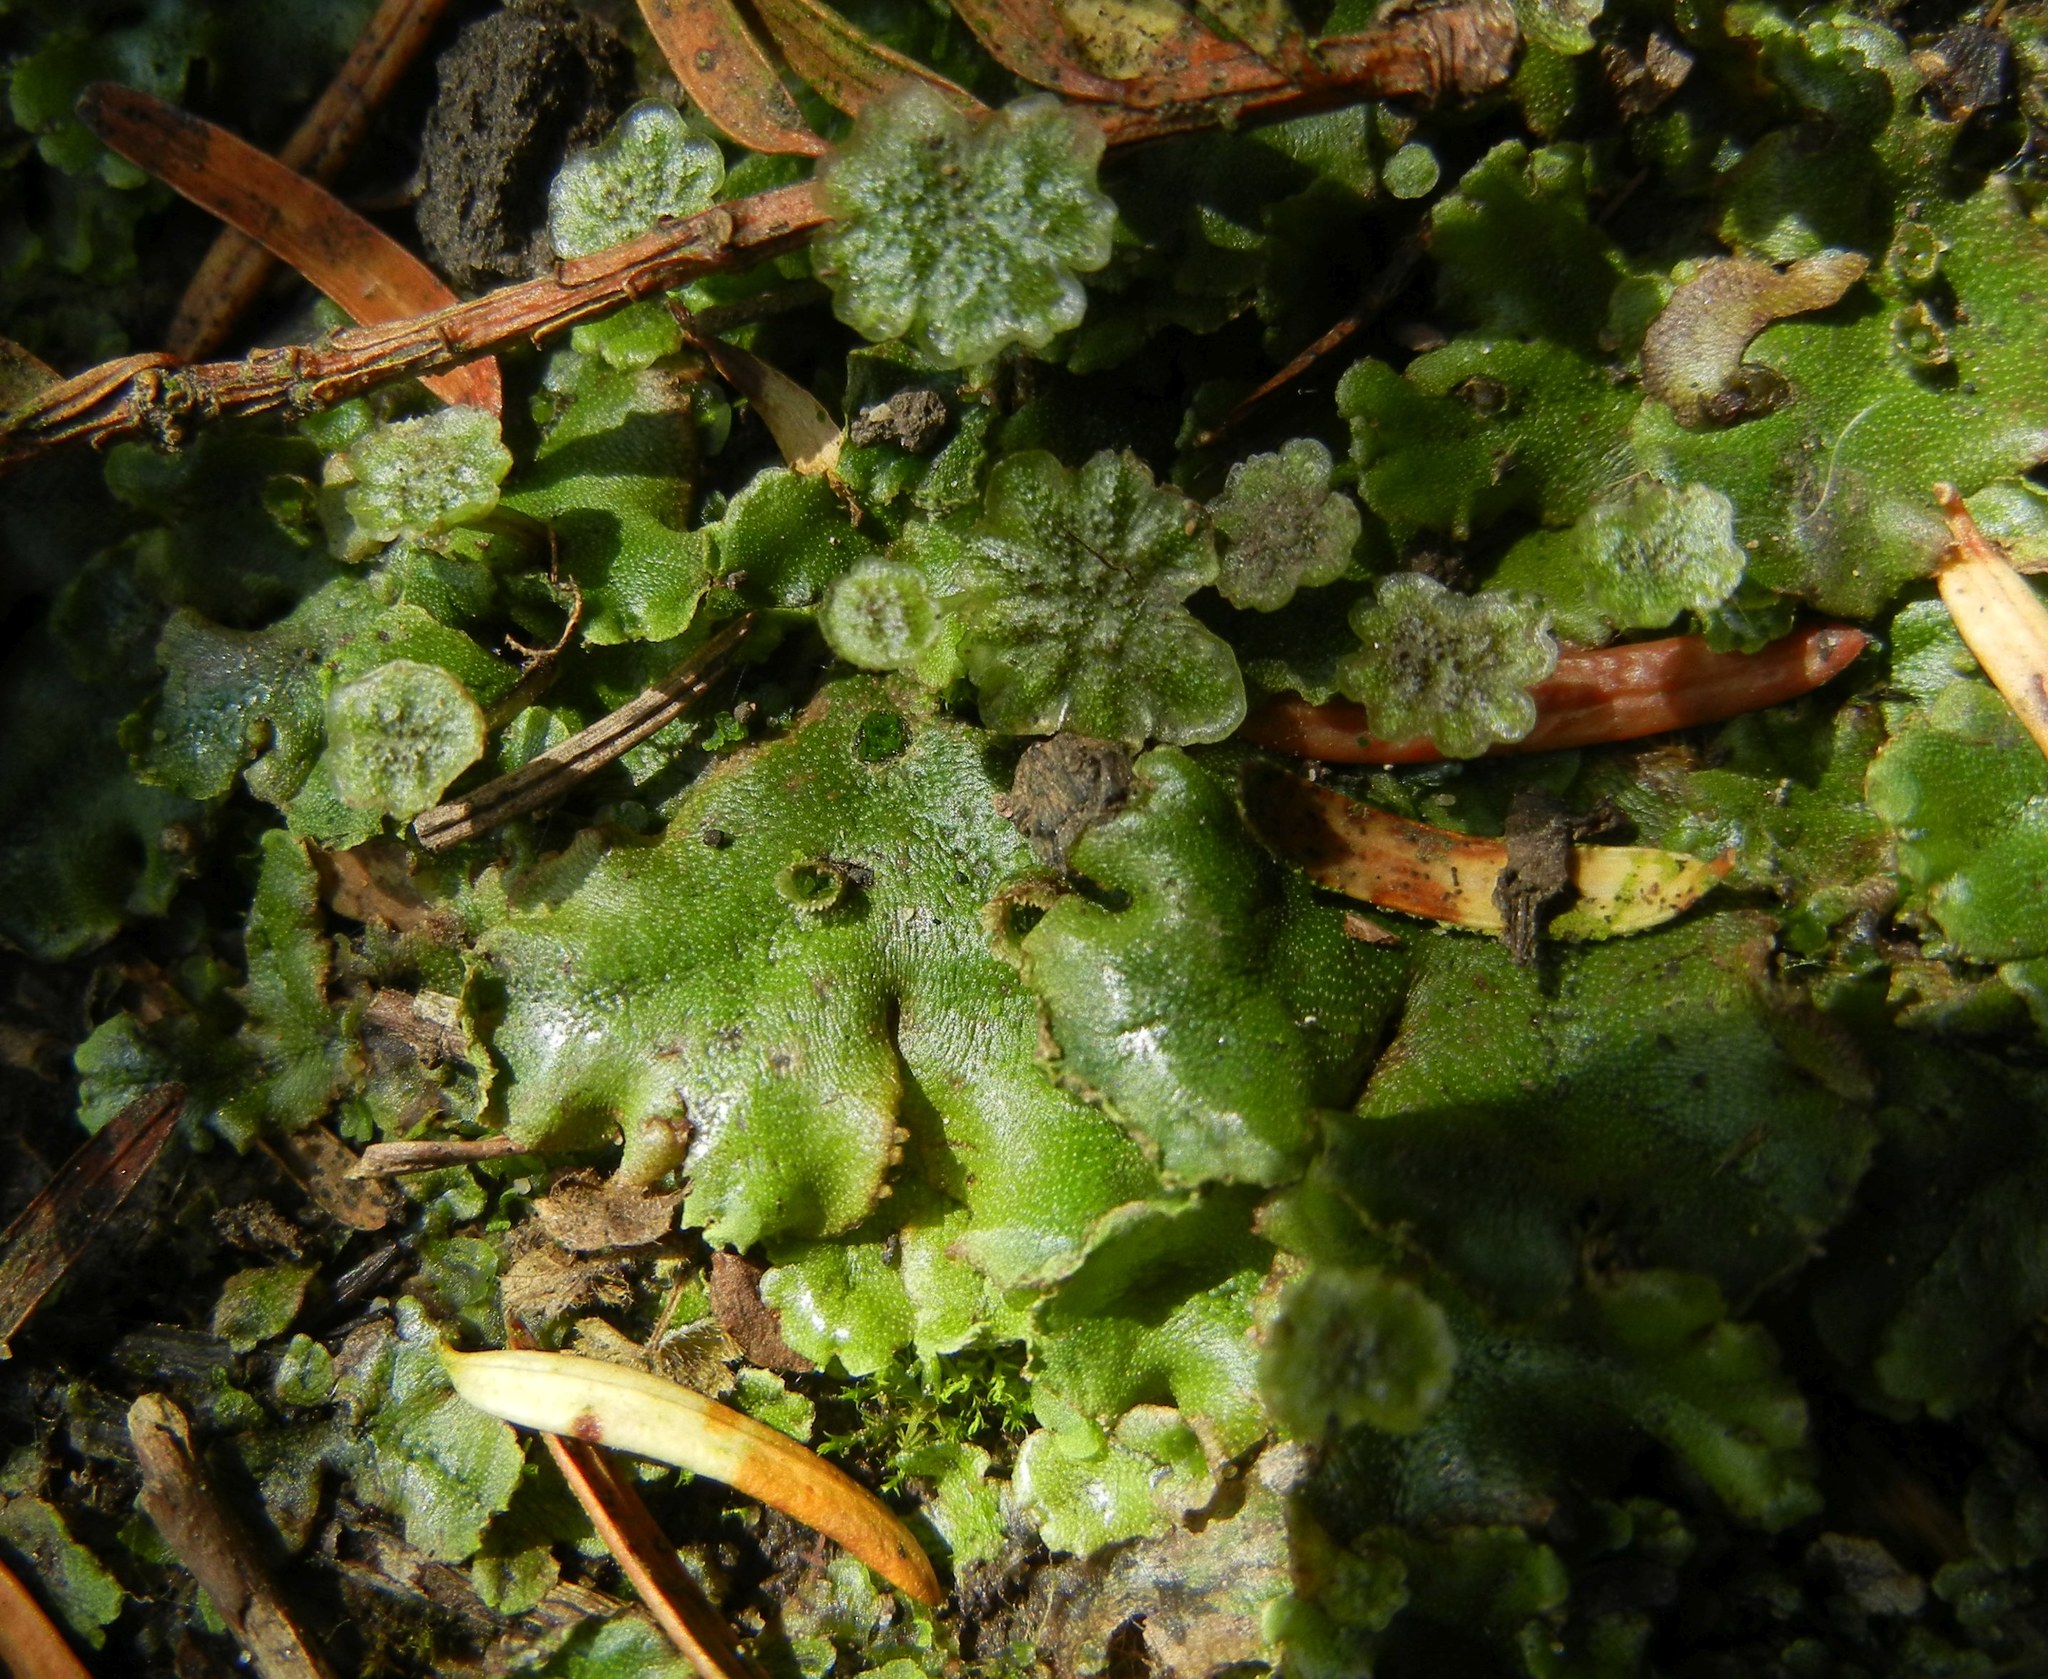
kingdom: Plantae
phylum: Marchantiophyta
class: Marchantiopsida
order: Marchantiales
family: Marchantiaceae
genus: Marchantia
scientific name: Marchantia polymorpha
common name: Common liverwort
